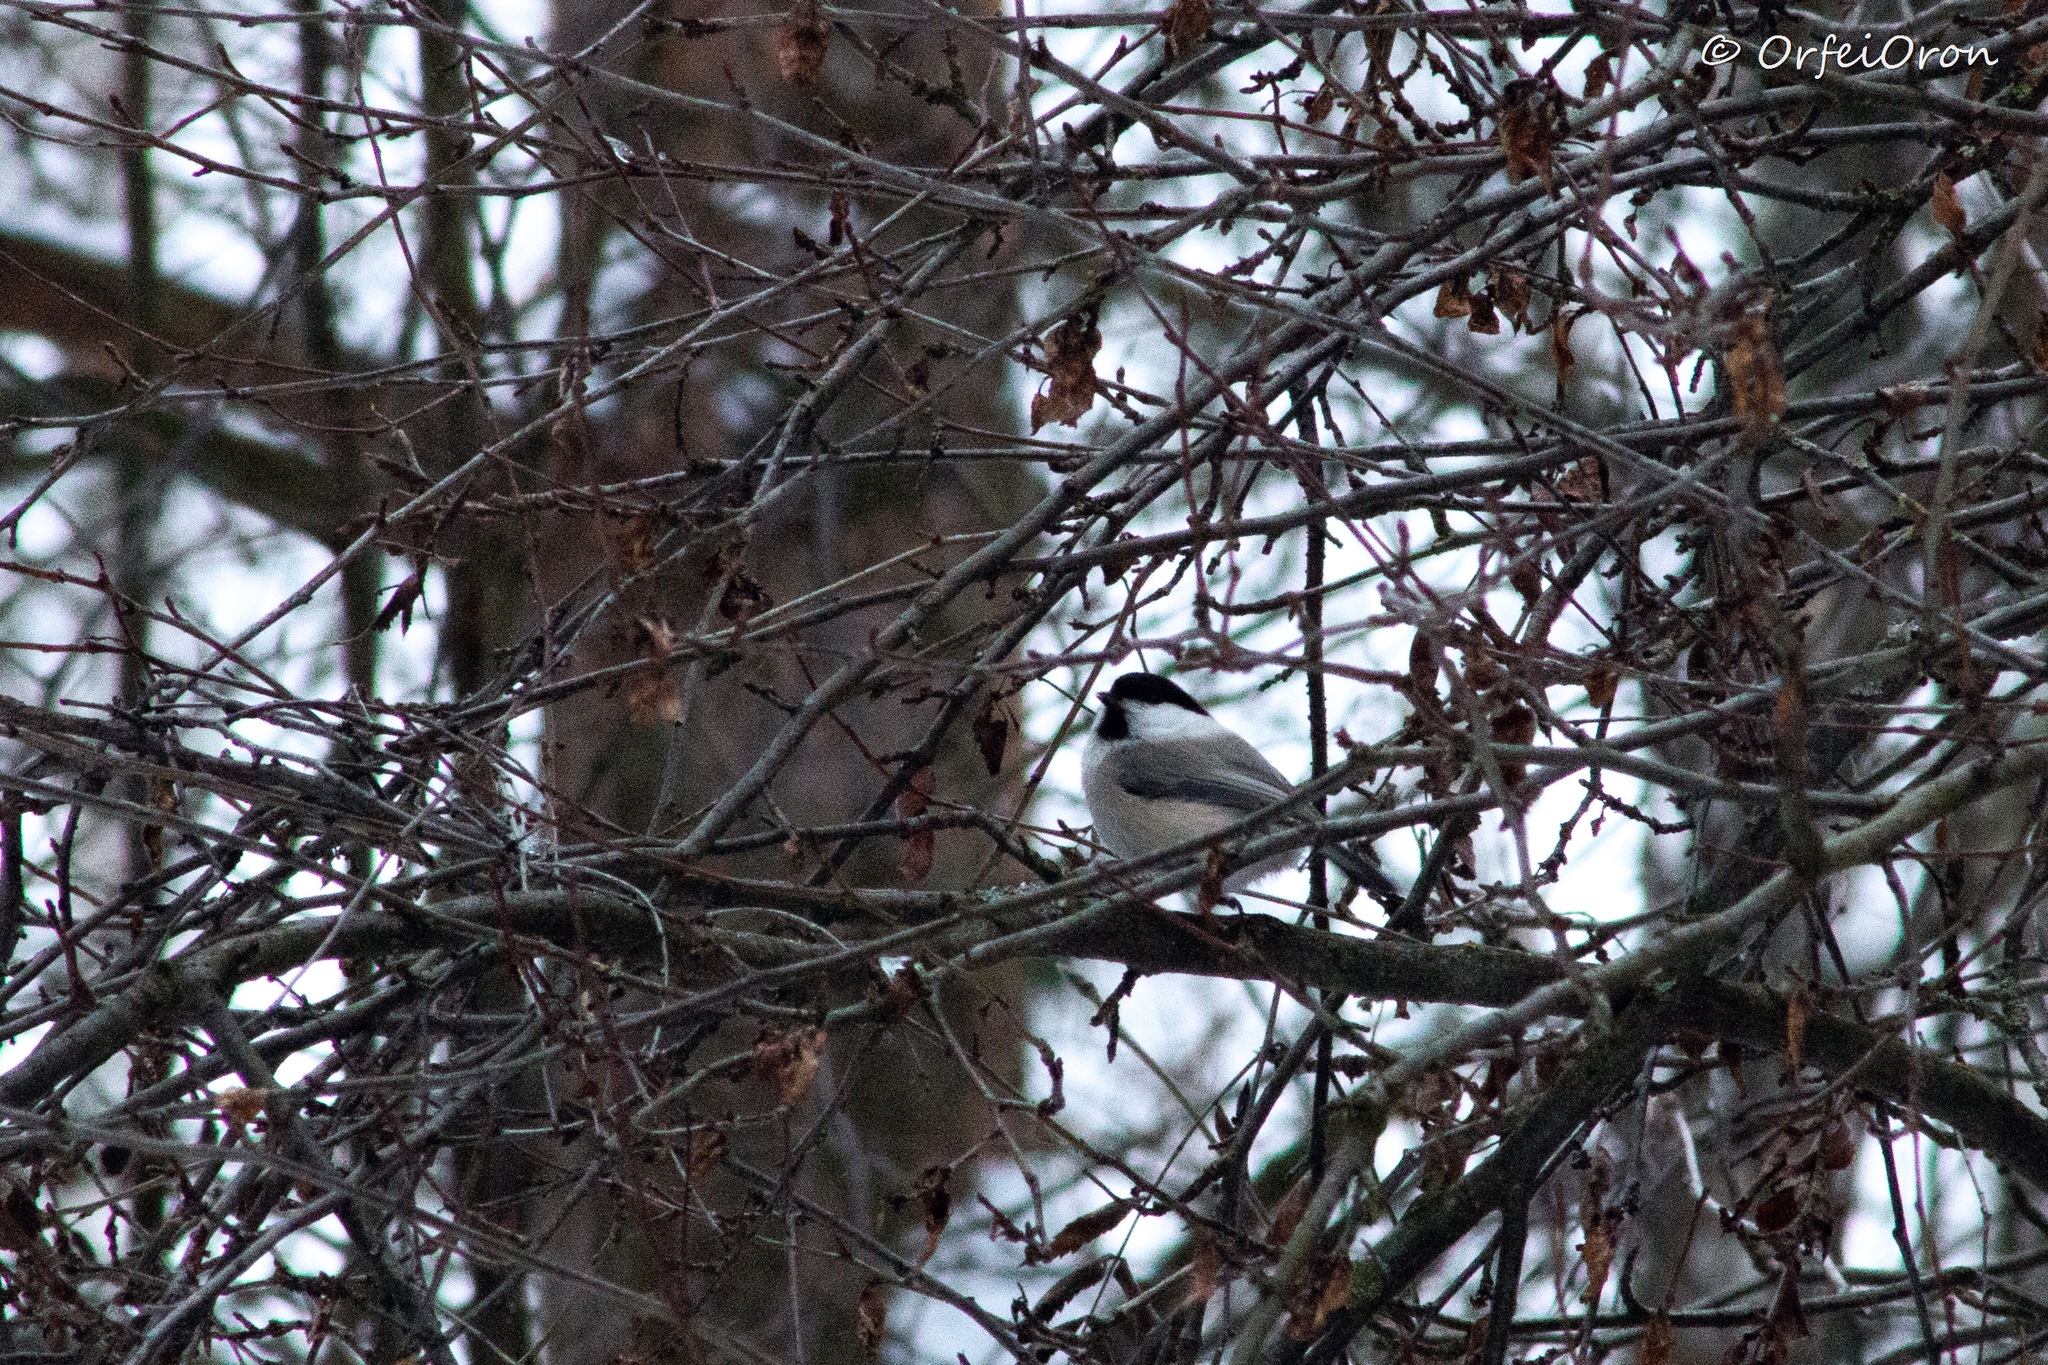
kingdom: Animalia
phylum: Chordata
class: Aves
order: Passeriformes
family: Paridae
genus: Poecile
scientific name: Poecile montanus
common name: Willow tit
